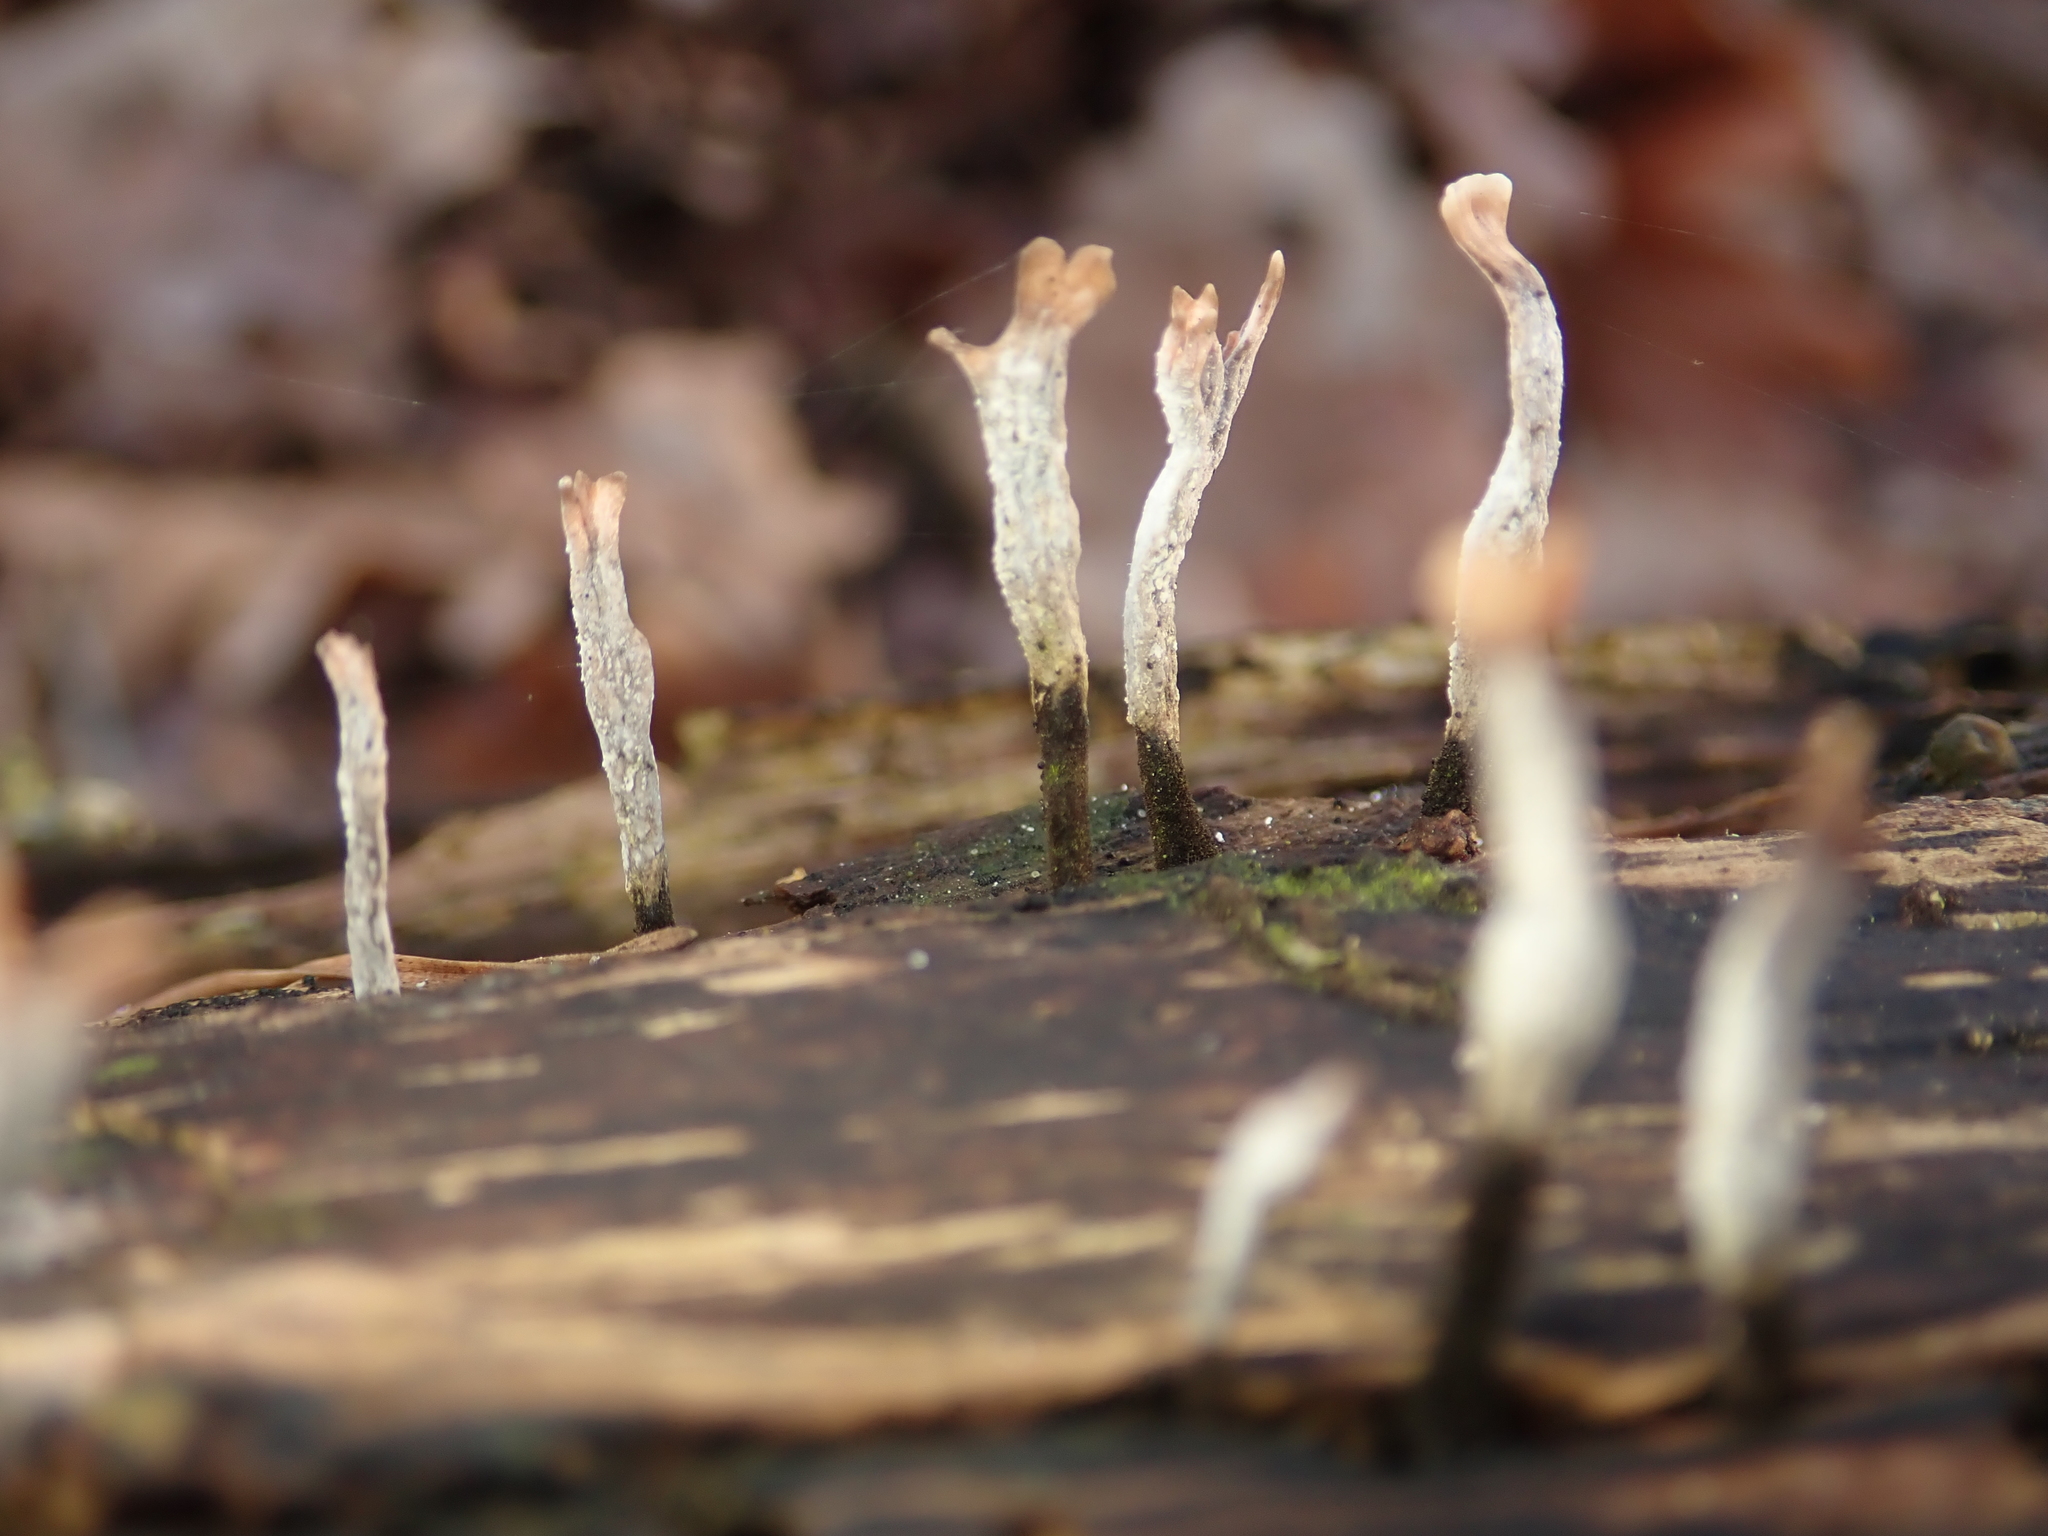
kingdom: Fungi
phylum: Ascomycota
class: Sordariomycetes
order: Xylariales
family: Xylariaceae
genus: Xylaria
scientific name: Xylaria hypoxylon
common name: Candle-snuff fungus
